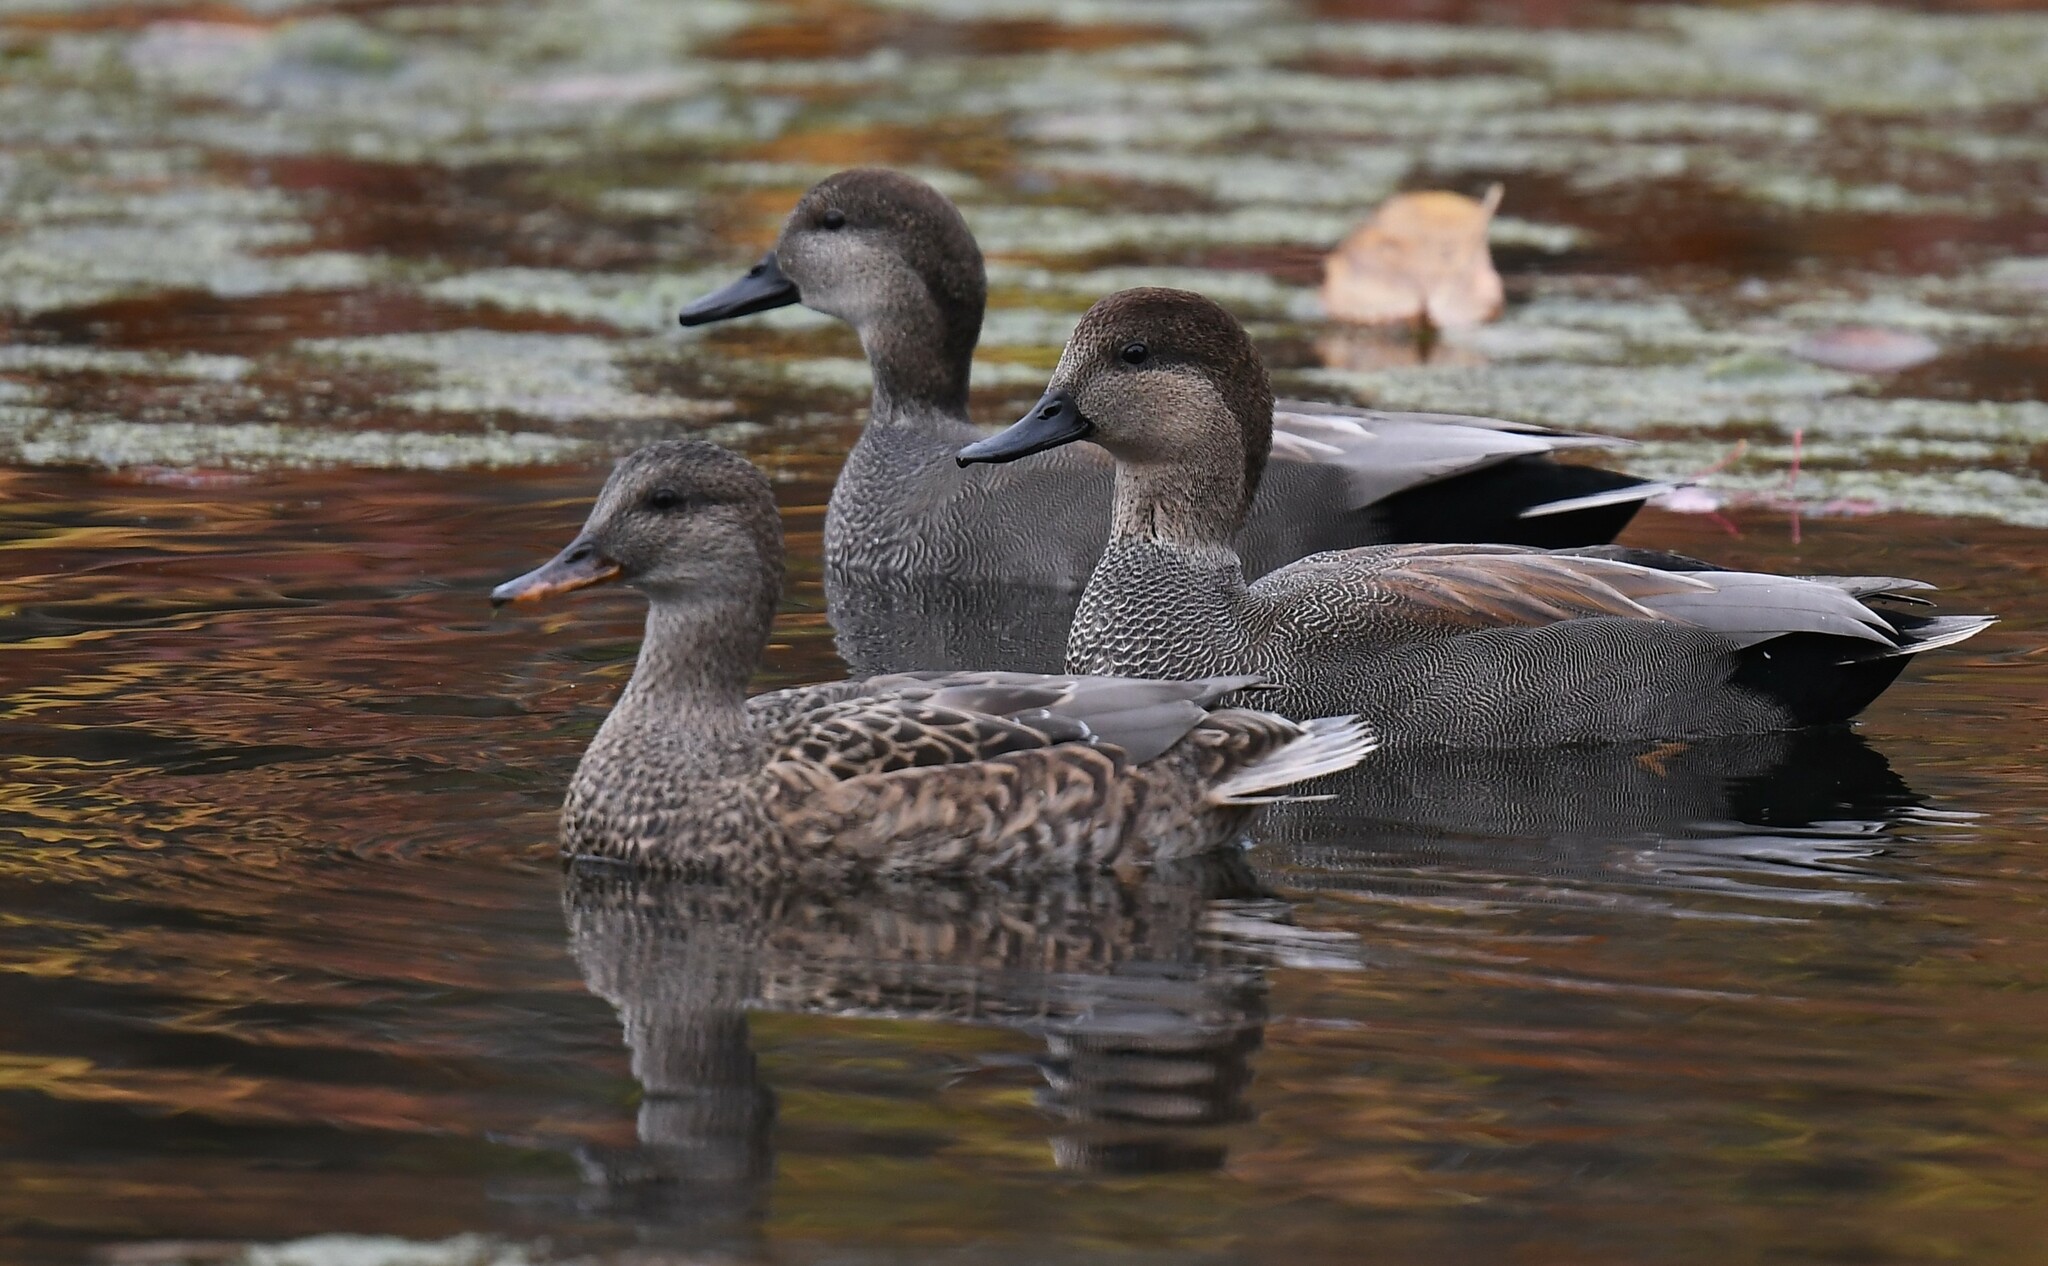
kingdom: Animalia
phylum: Chordata
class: Aves
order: Anseriformes
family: Anatidae
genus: Mareca
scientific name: Mareca strepera
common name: Gadwall
